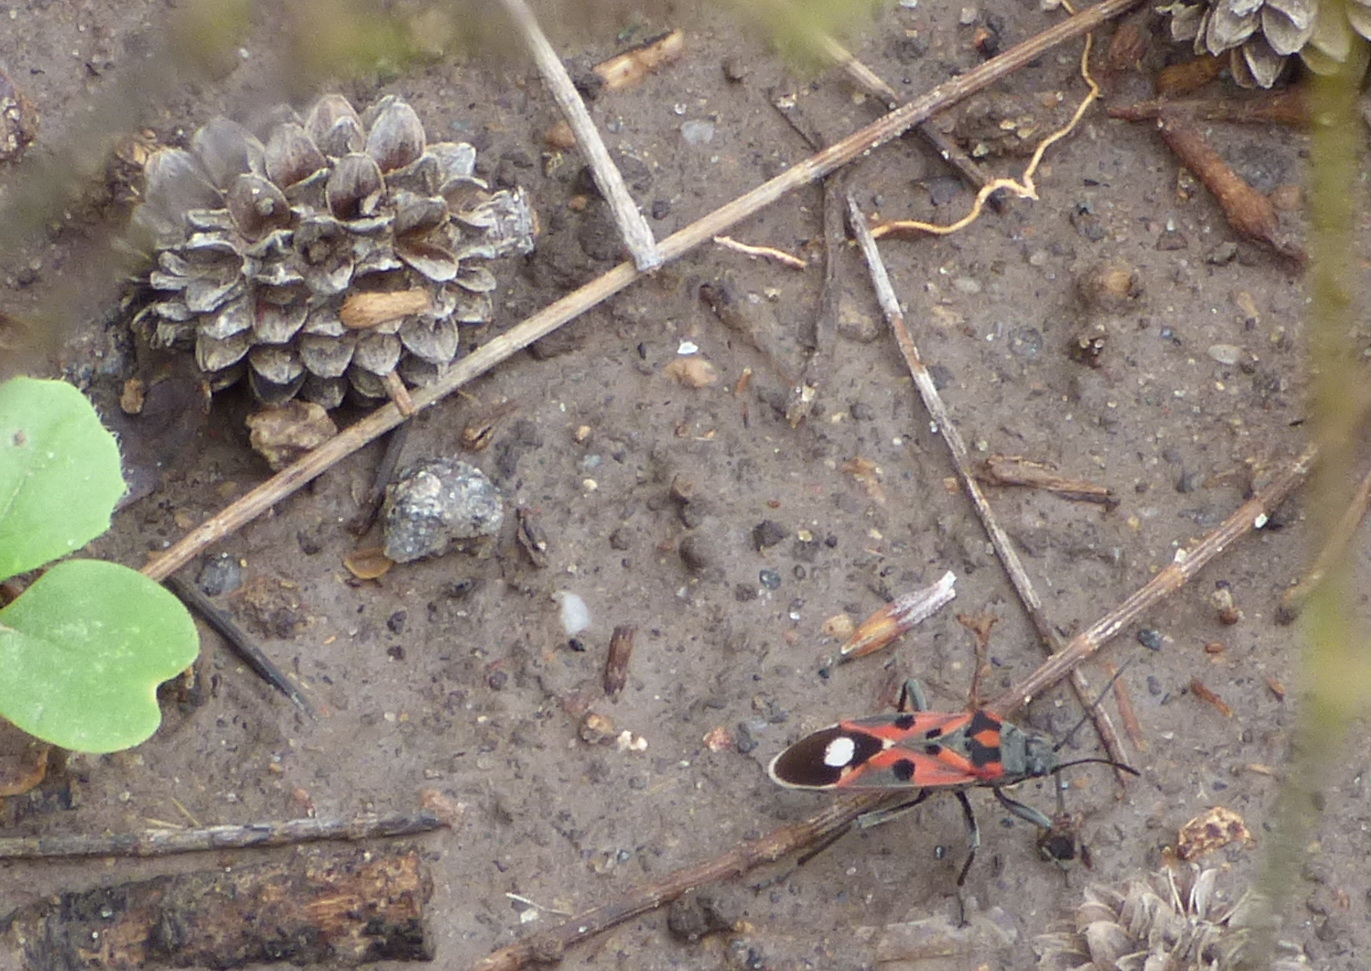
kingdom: Animalia
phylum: Arthropoda
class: Insecta
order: Hemiptera
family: Lygaeidae
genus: Lygaeus
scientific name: Lygaeus alboornatus
